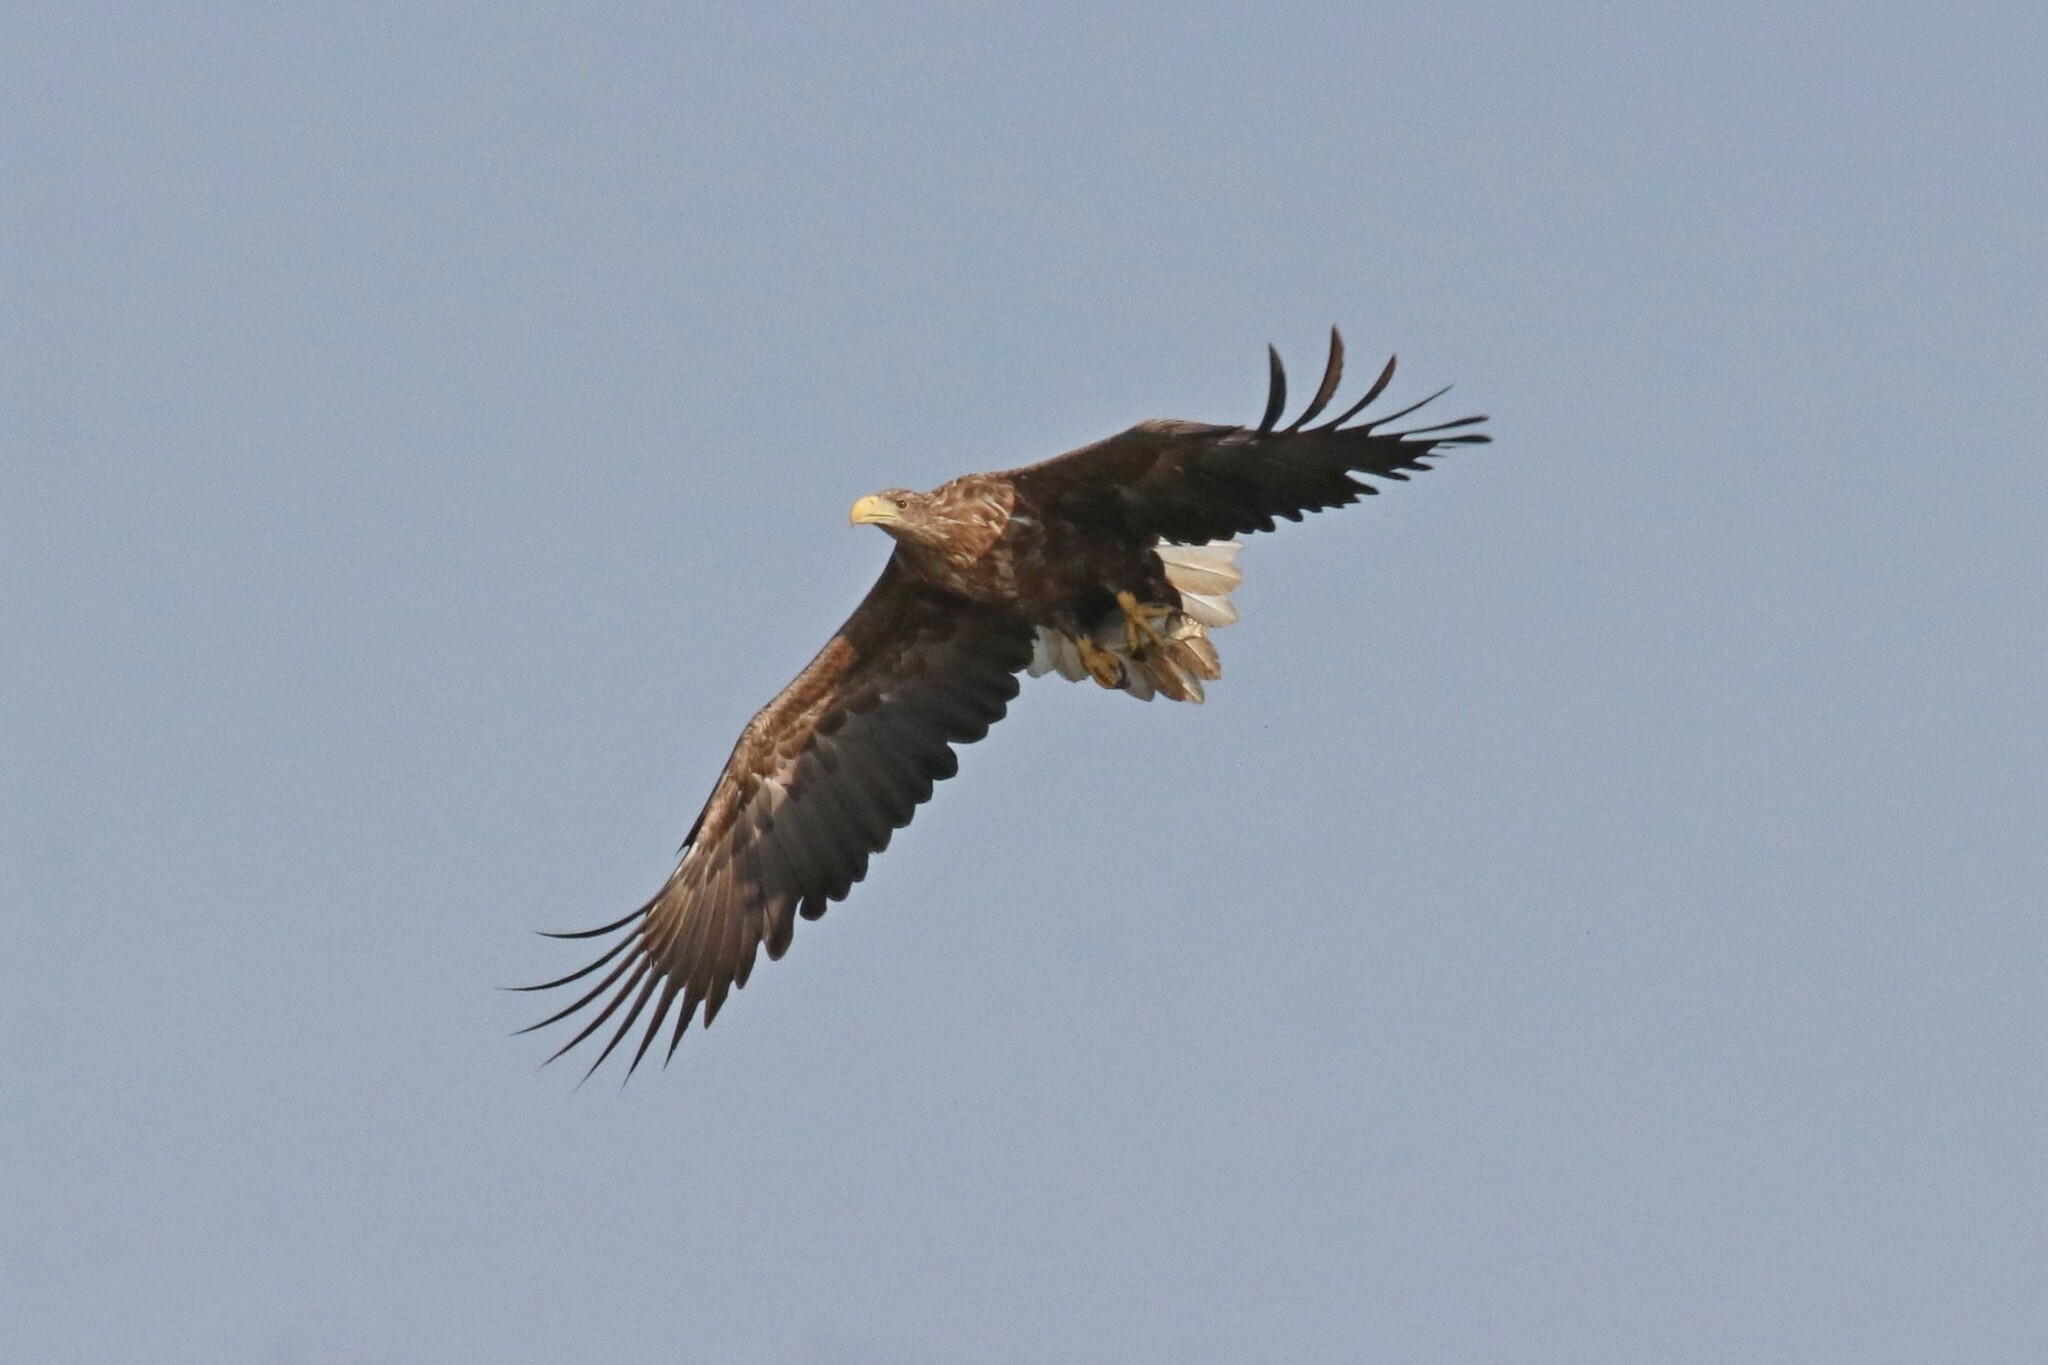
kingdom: Animalia
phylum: Chordata
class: Aves
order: Accipitriformes
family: Accipitridae
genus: Haliaeetus
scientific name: Haliaeetus albicilla
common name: White-tailed eagle
